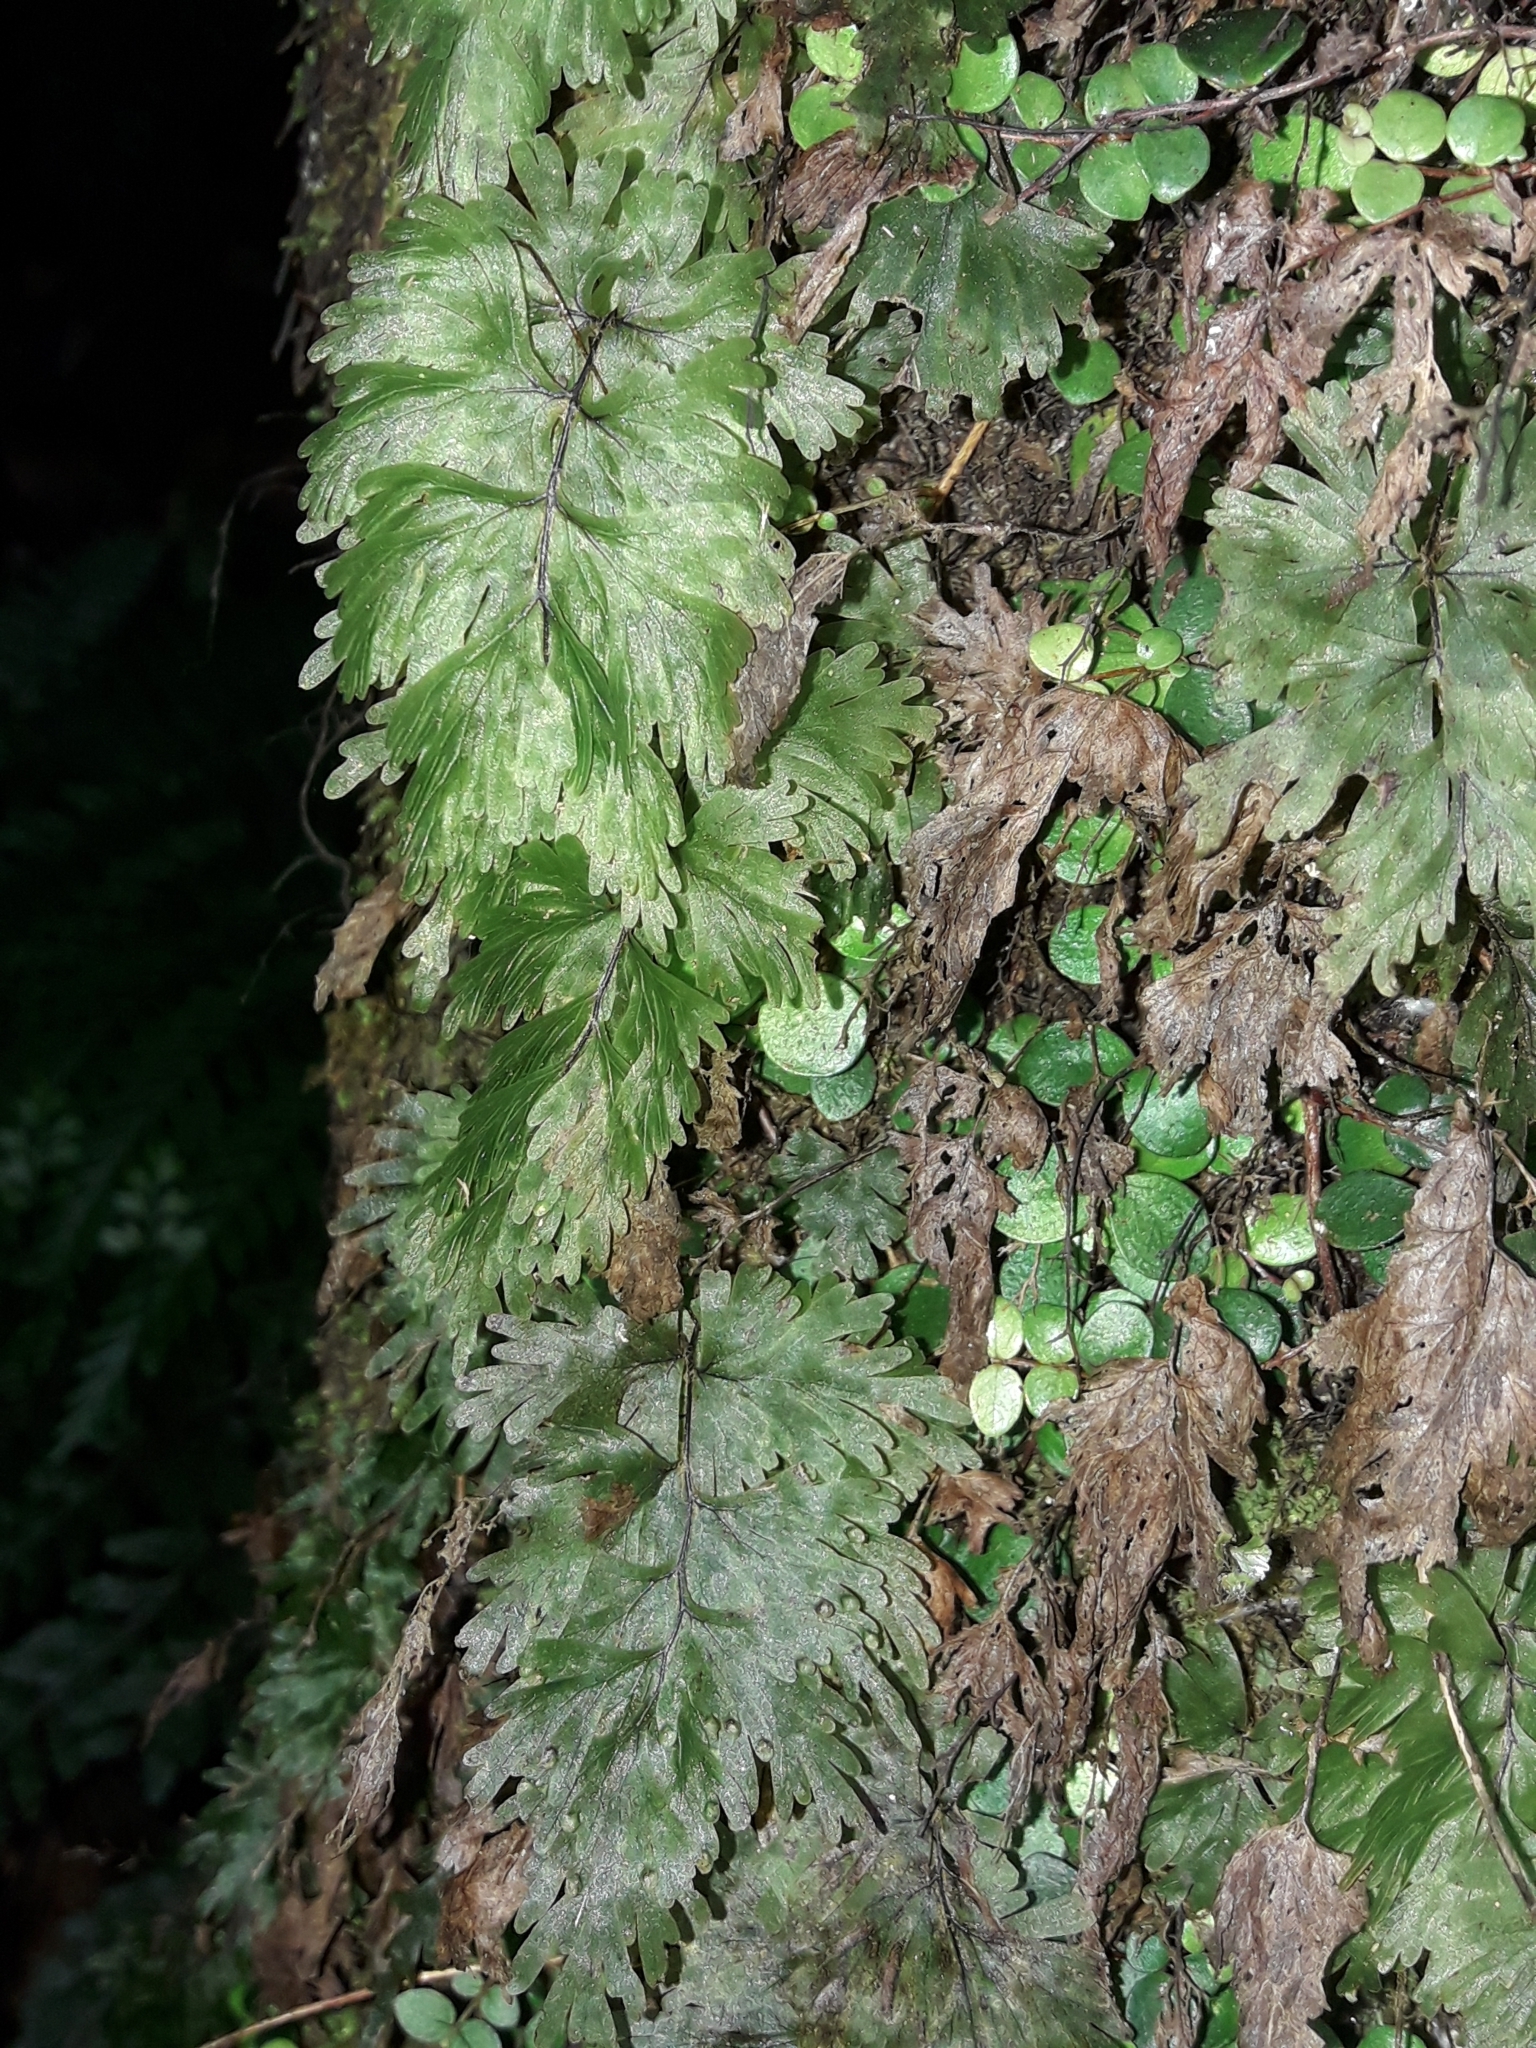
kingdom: Plantae
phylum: Tracheophyta
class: Polypodiopsida
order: Hymenophyllales
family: Hymenophyllaceae
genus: Hymenophyllum
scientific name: Hymenophyllum flabellatum
